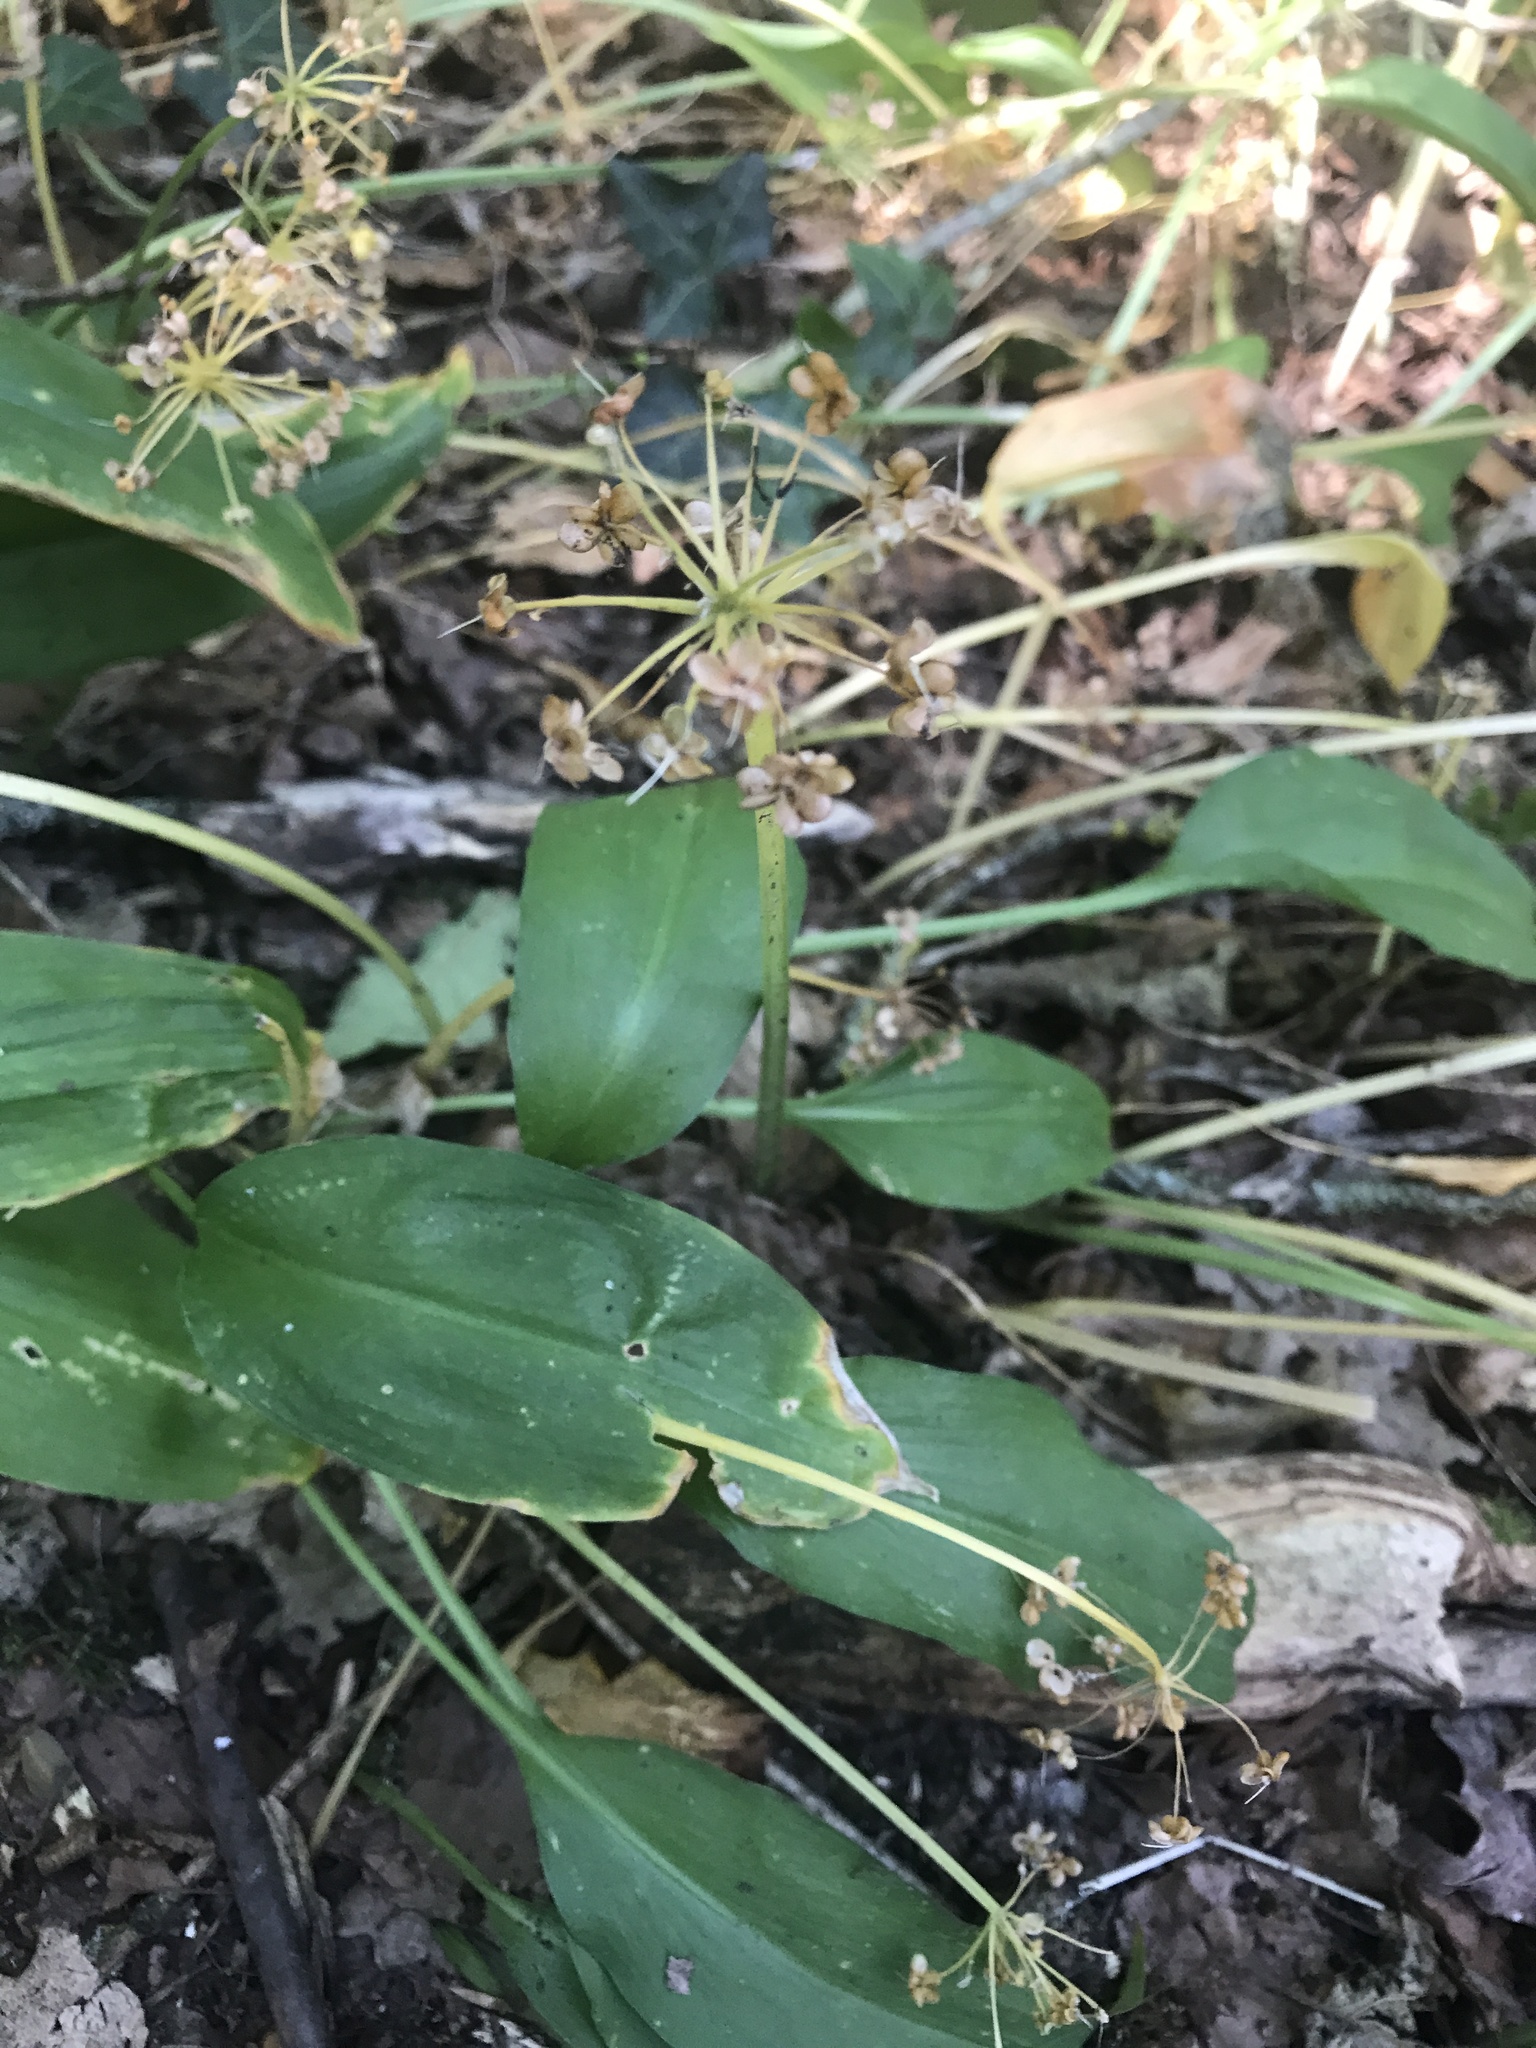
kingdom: Plantae
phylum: Tracheophyta
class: Liliopsida
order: Asparagales
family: Amaryllidaceae
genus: Allium
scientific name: Allium ursinum
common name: Ramsons
